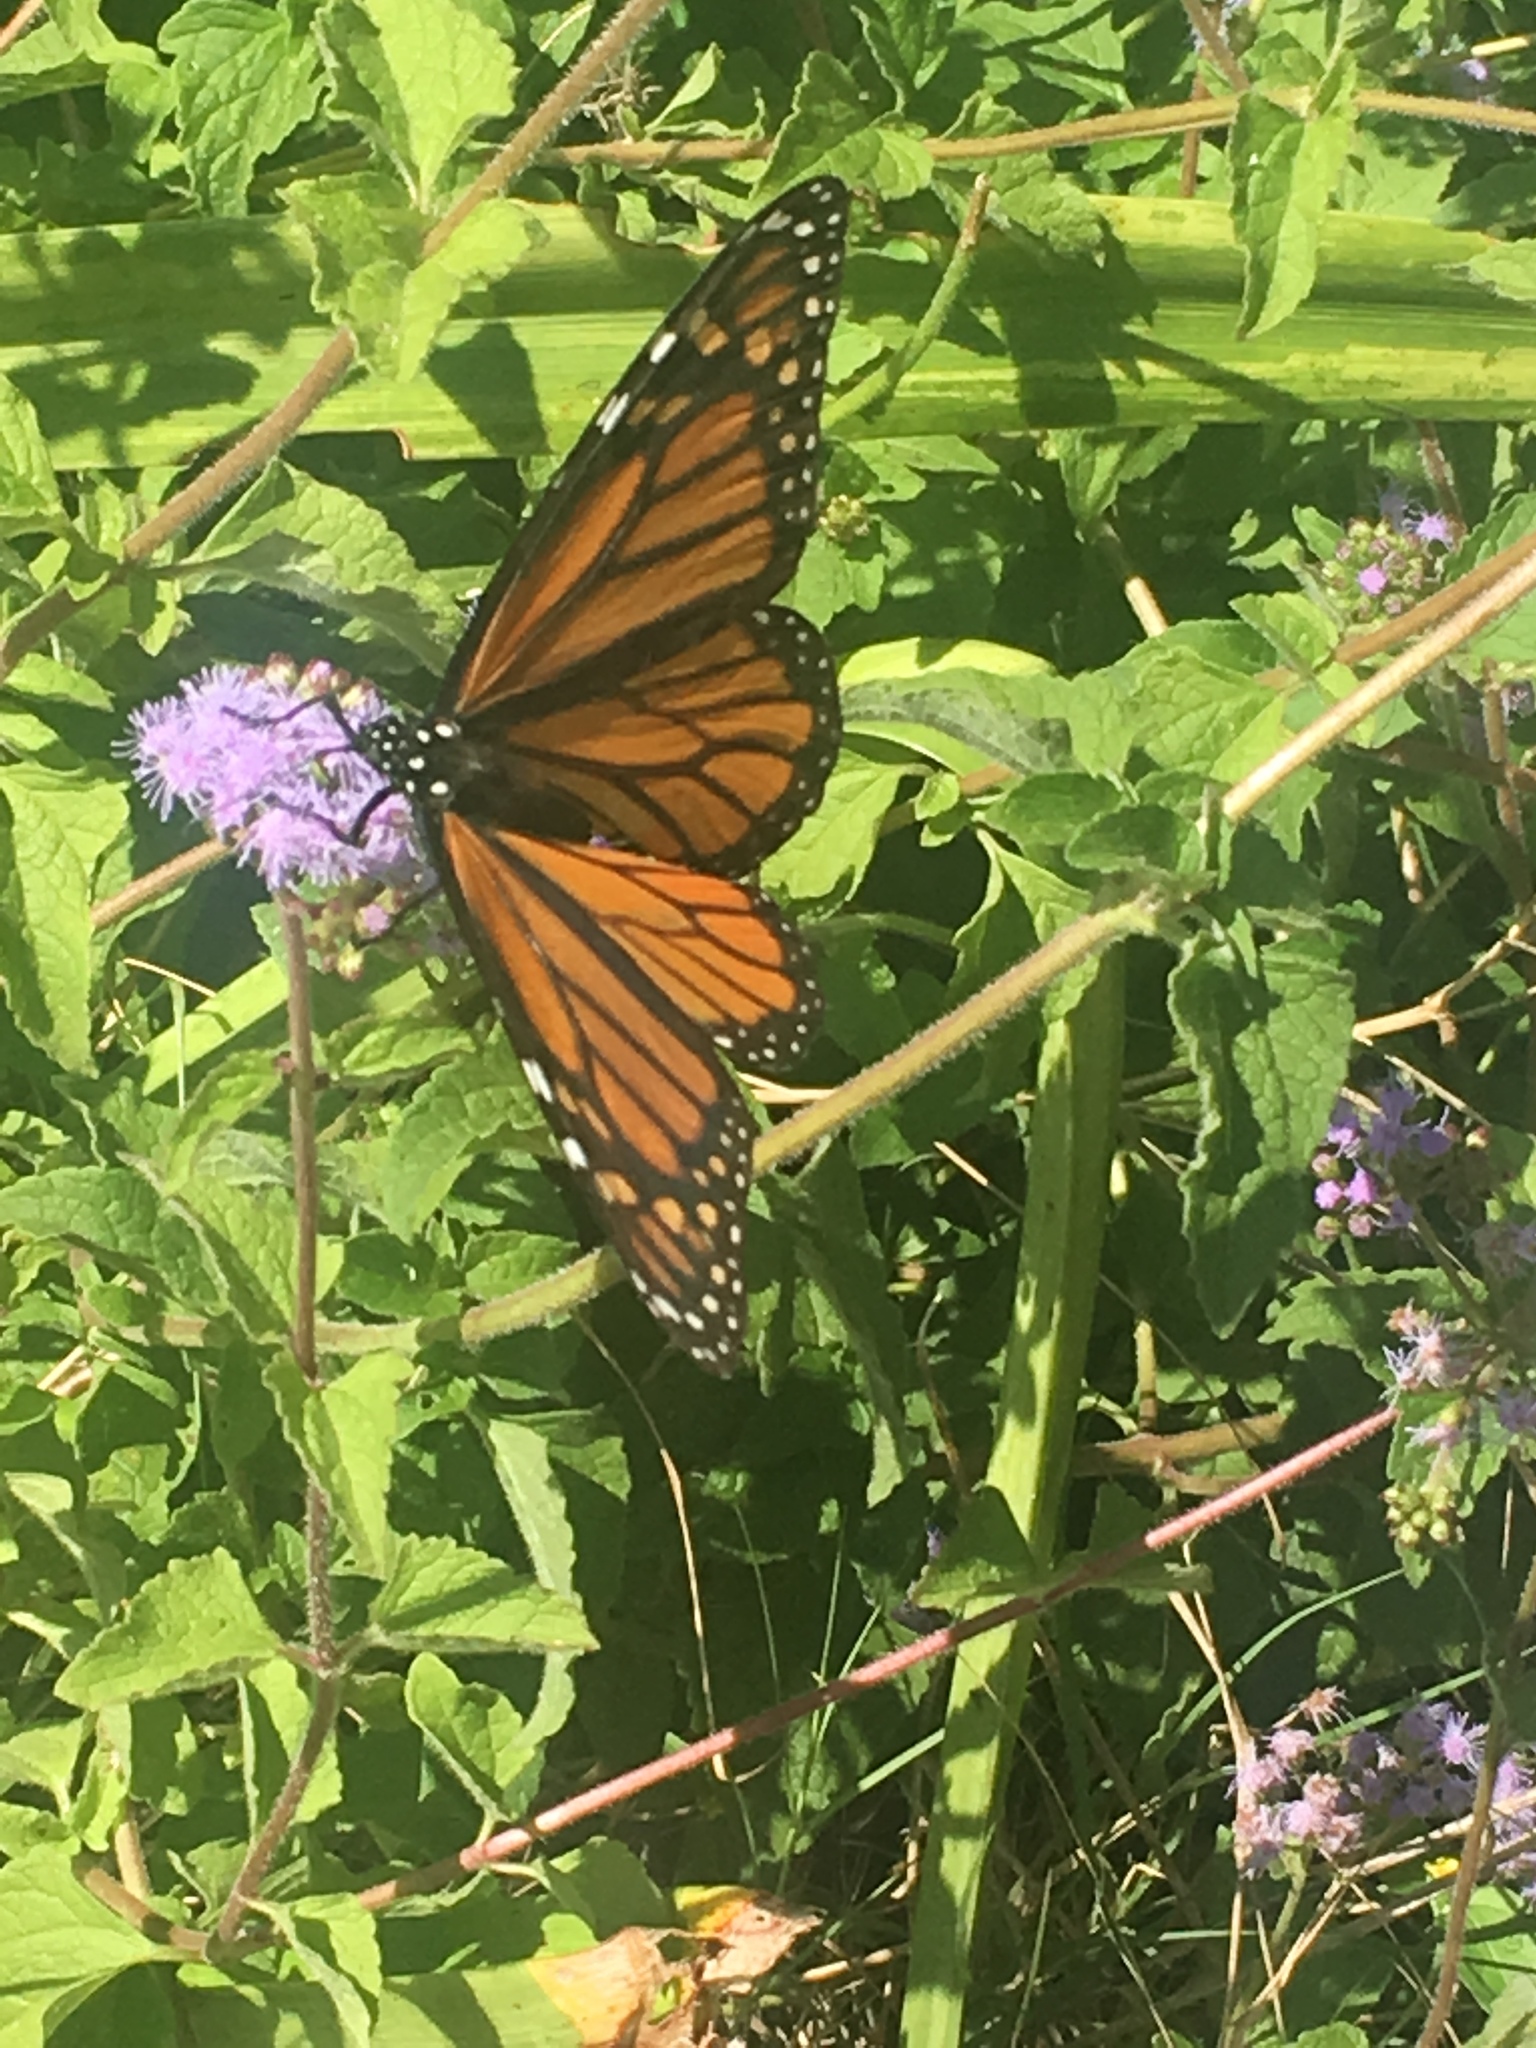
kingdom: Animalia
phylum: Arthropoda
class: Insecta
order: Lepidoptera
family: Nymphalidae
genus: Danaus
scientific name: Danaus plexippus
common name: Monarch
